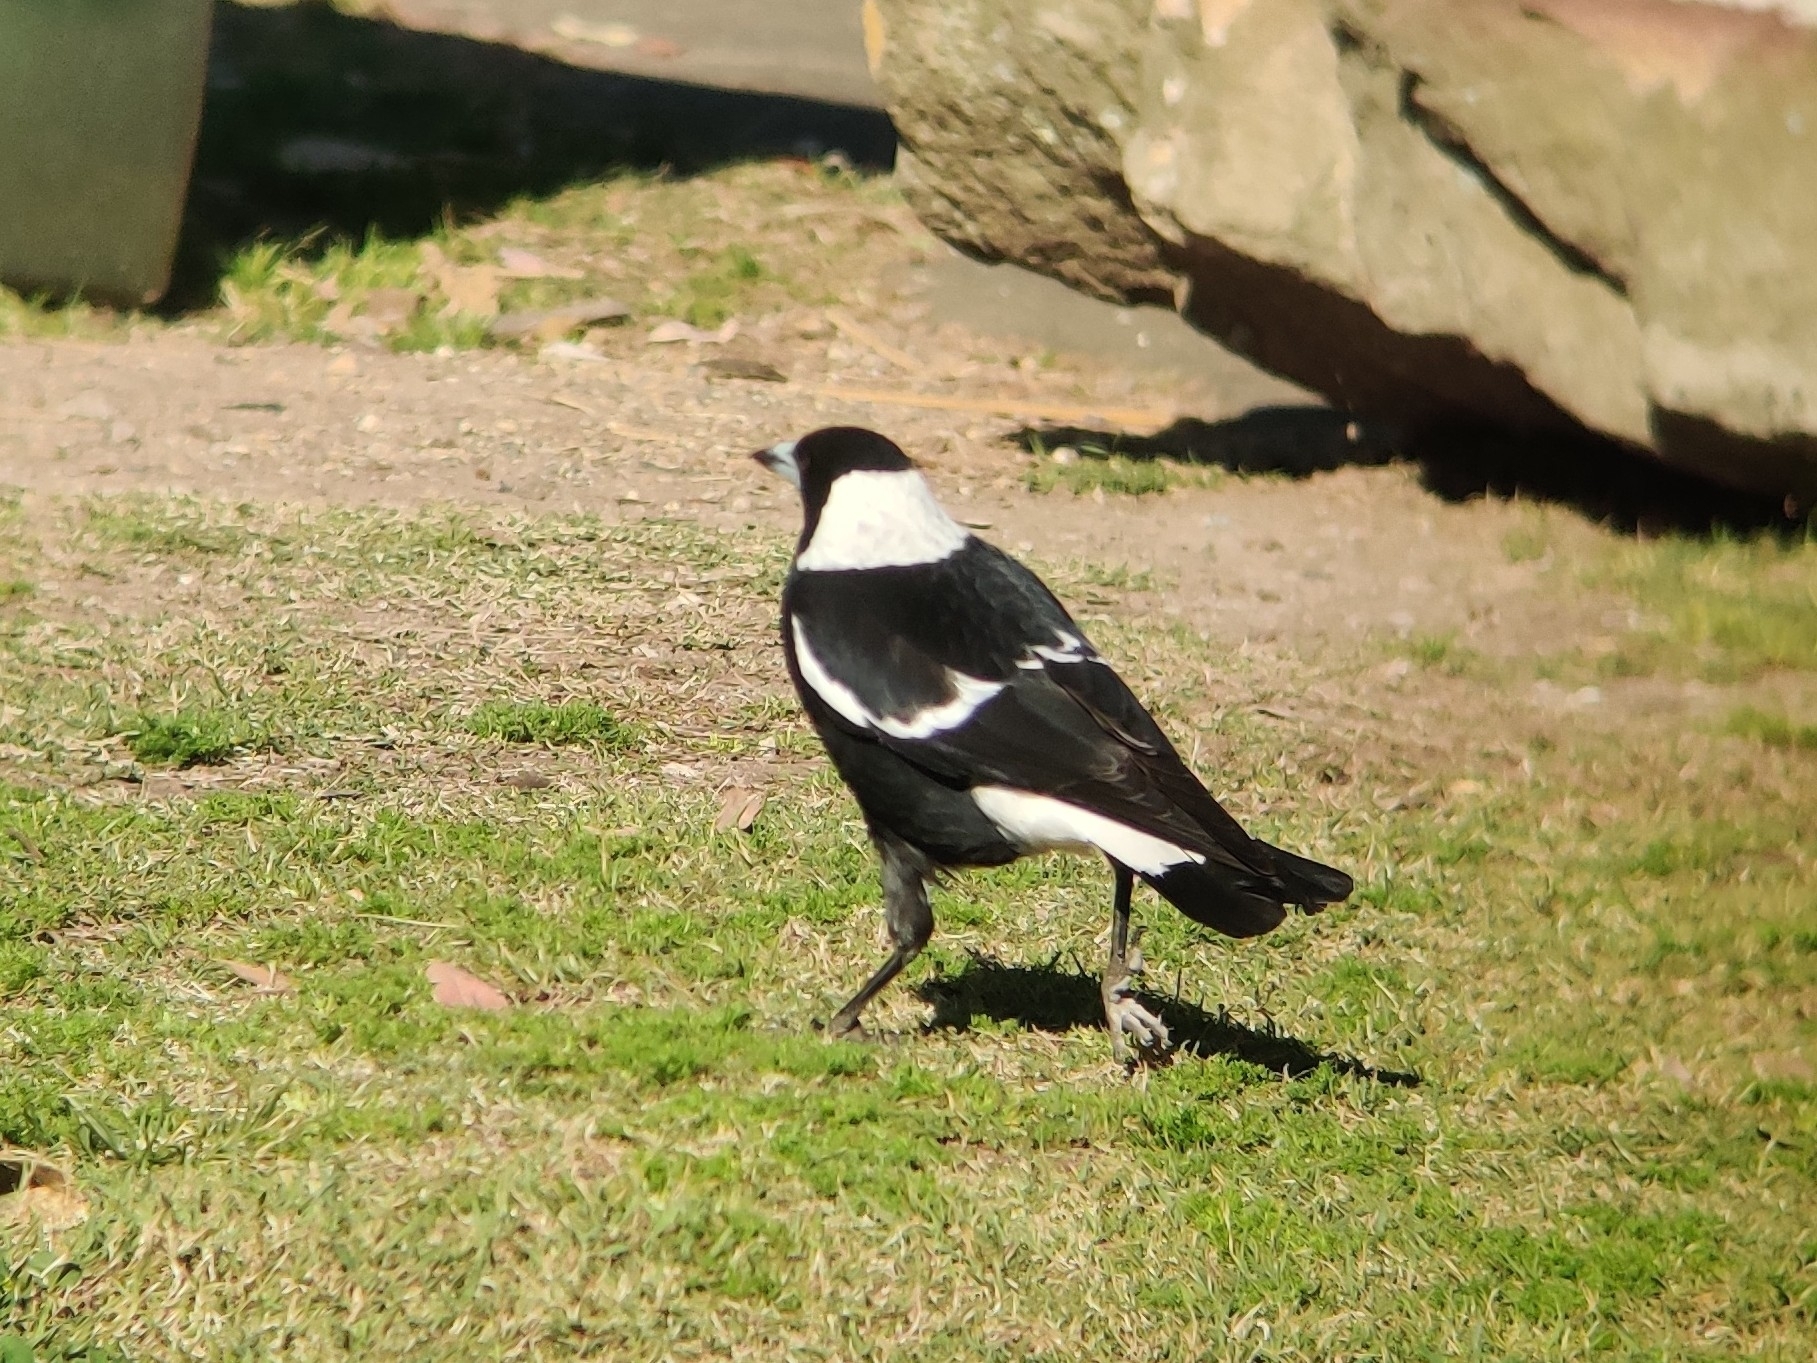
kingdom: Animalia
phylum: Chordata
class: Aves
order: Passeriformes
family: Cracticidae
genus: Gymnorhina
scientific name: Gymnorhina tibicen
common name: Australian magpie
